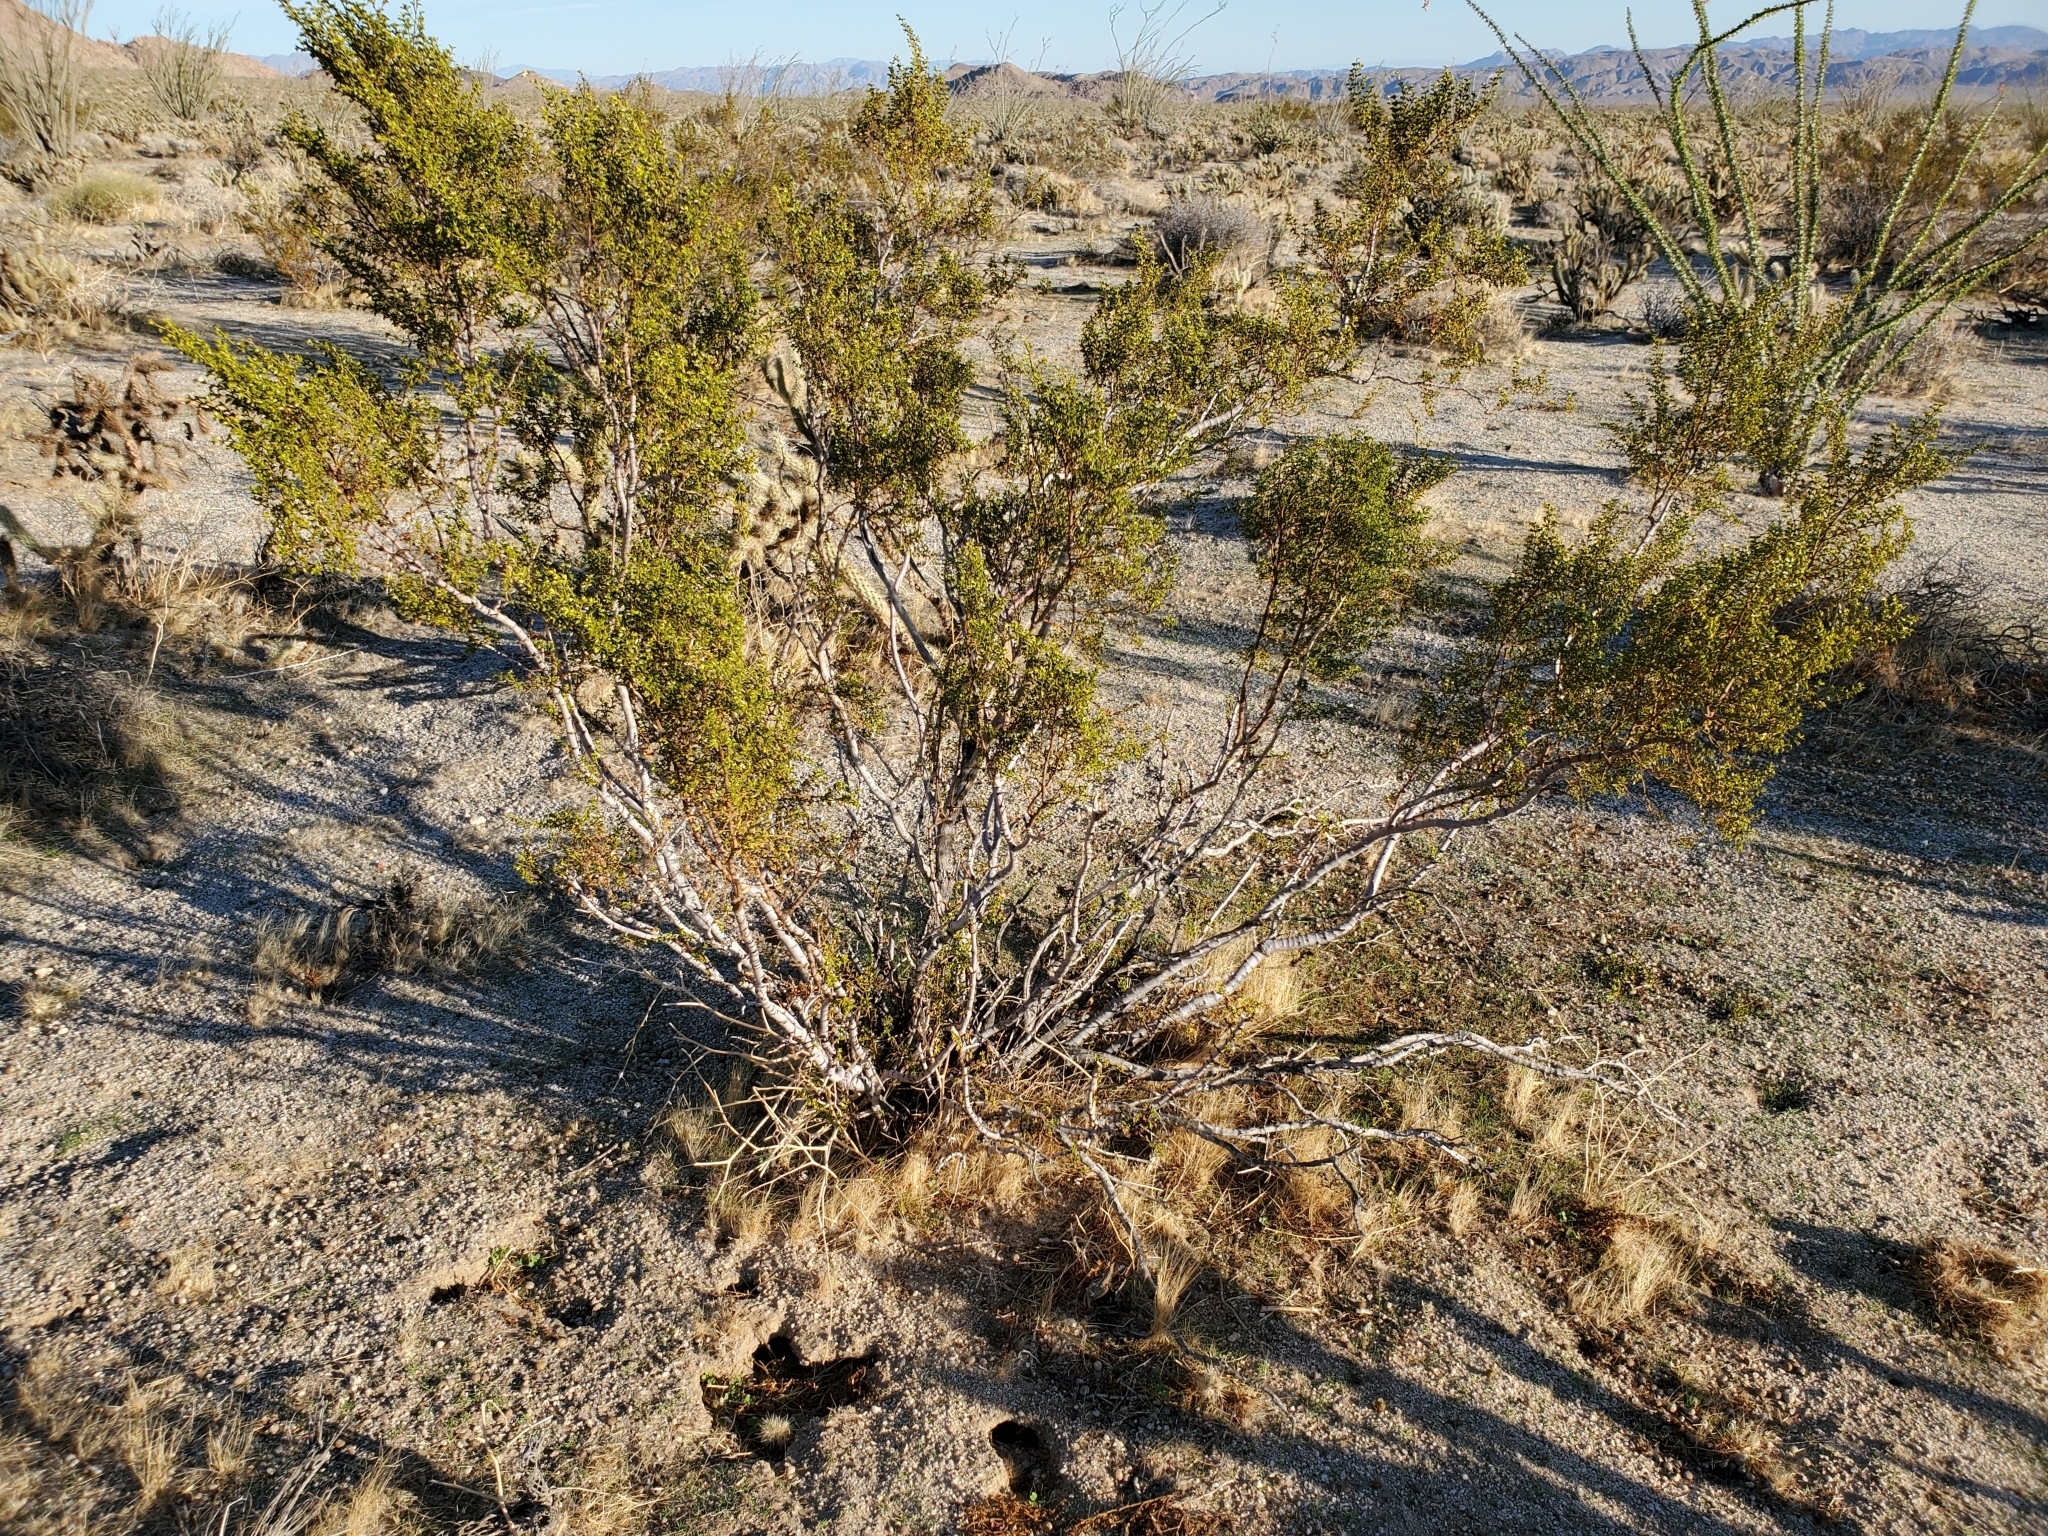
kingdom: Plantae
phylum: Tracheophyta
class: Magnoliopsida
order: Zygophyllales
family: Zygophyllaceae
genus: Larrea
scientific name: Larrea tridentata
